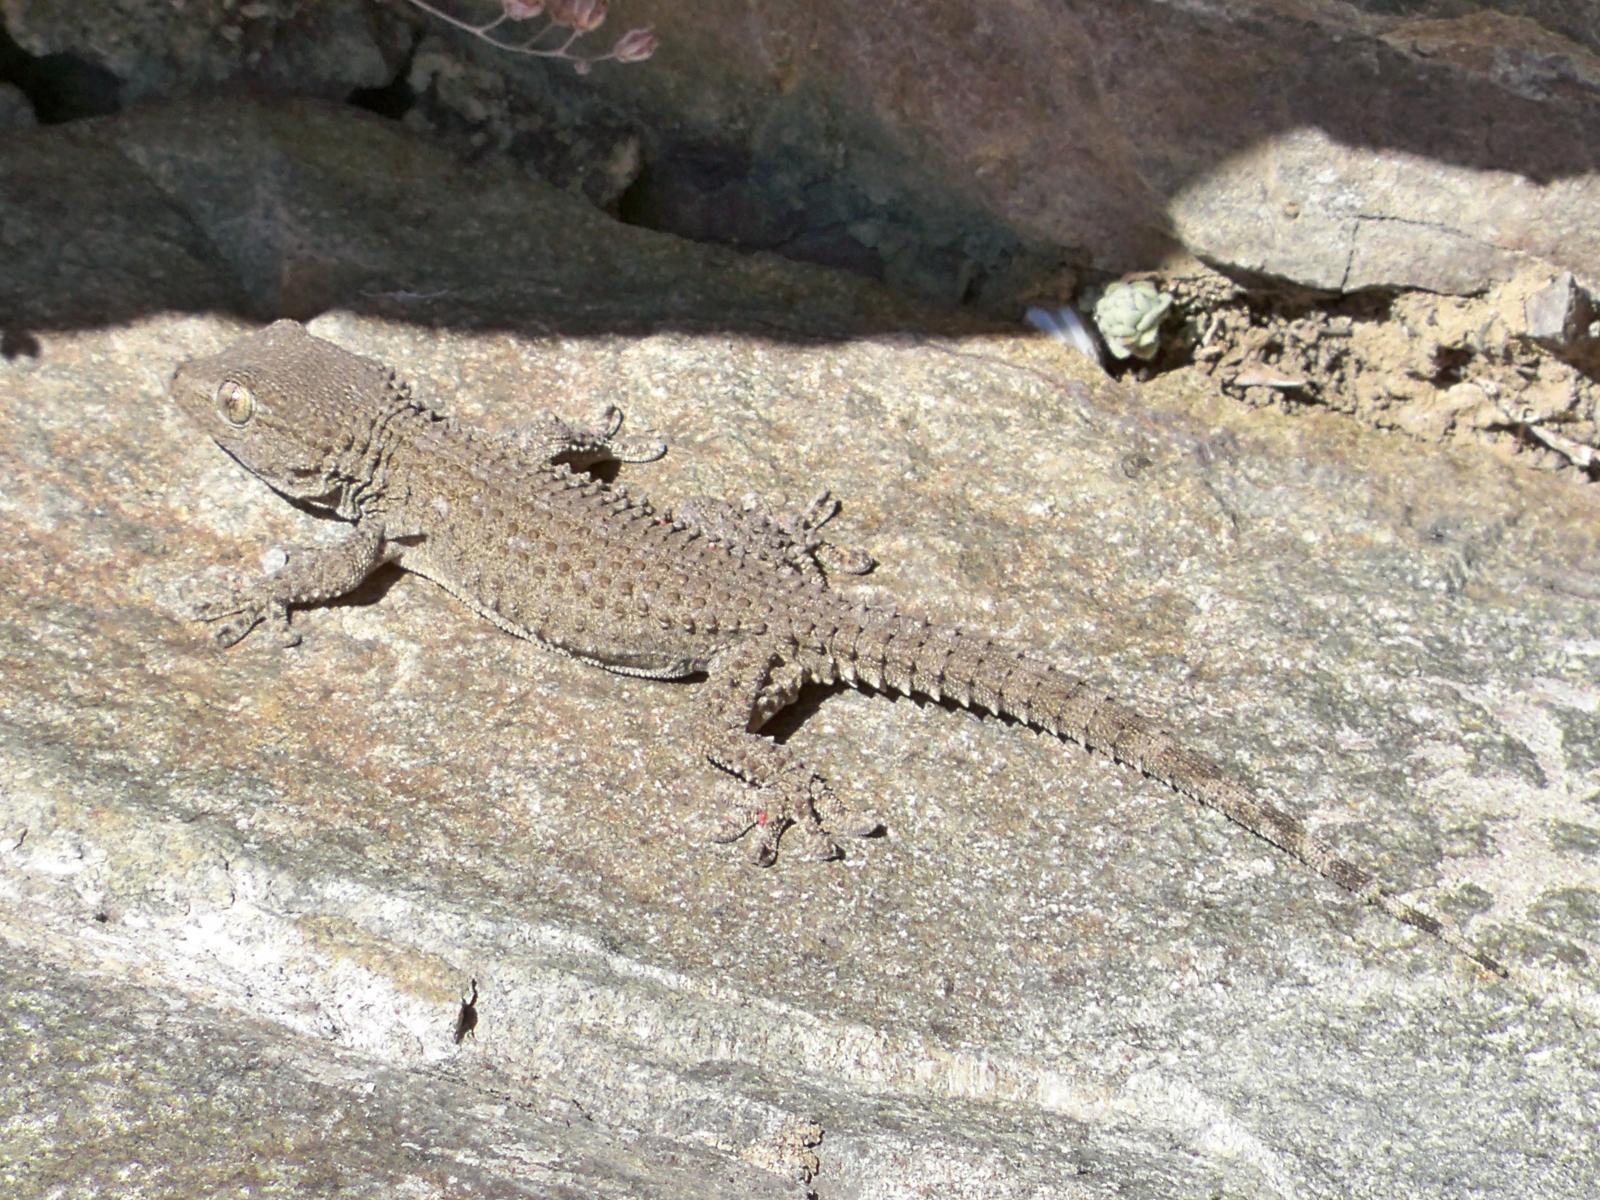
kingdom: Animalia
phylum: Chordata
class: Squamata
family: Phyllodactylidae
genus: Tarentola
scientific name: Tarentola mauritanica
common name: Moorish gecko
